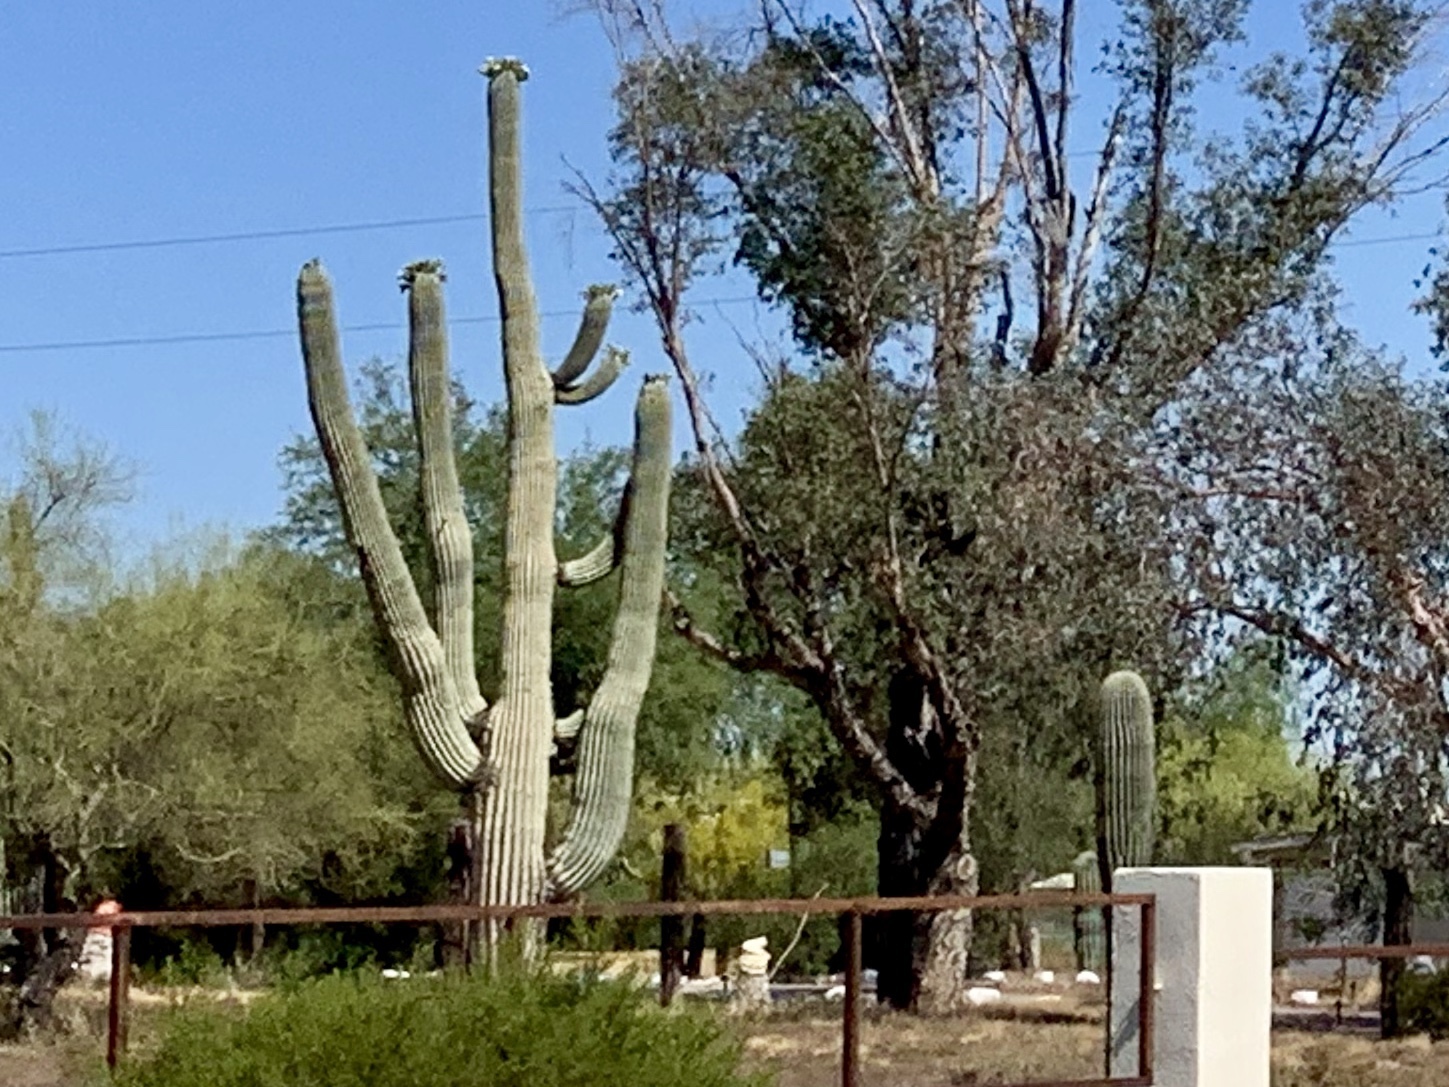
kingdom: Plantae
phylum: Tracheophyta
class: Magnoliopsida
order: Caryophyllales
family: Cactaceae
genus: Carnegiea
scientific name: Carnegiea gigantea
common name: Saguaro
